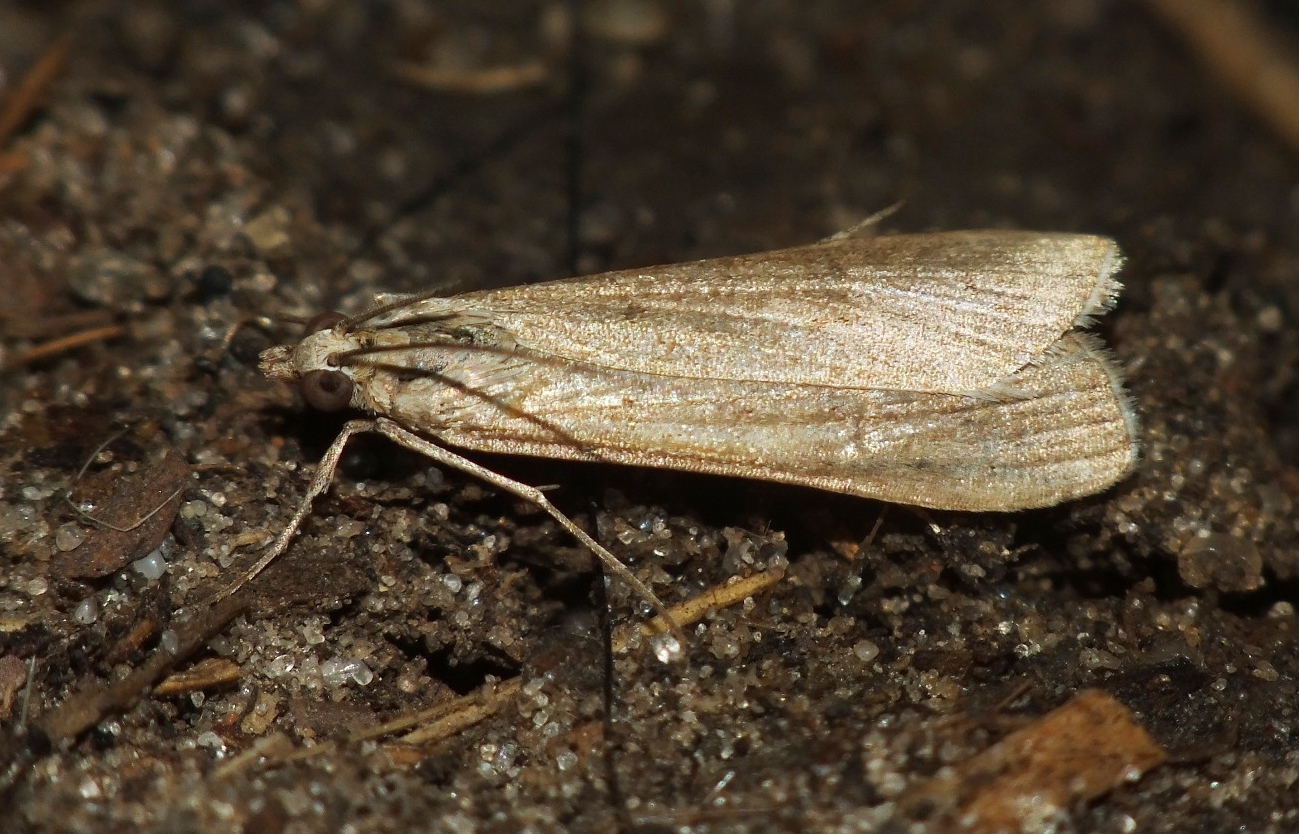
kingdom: Animalia
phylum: Arthropoda
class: Insecta
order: Lepidoptera
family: Crambidae
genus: Nomophila
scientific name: Nomophila noctuella
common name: Rush veneer
